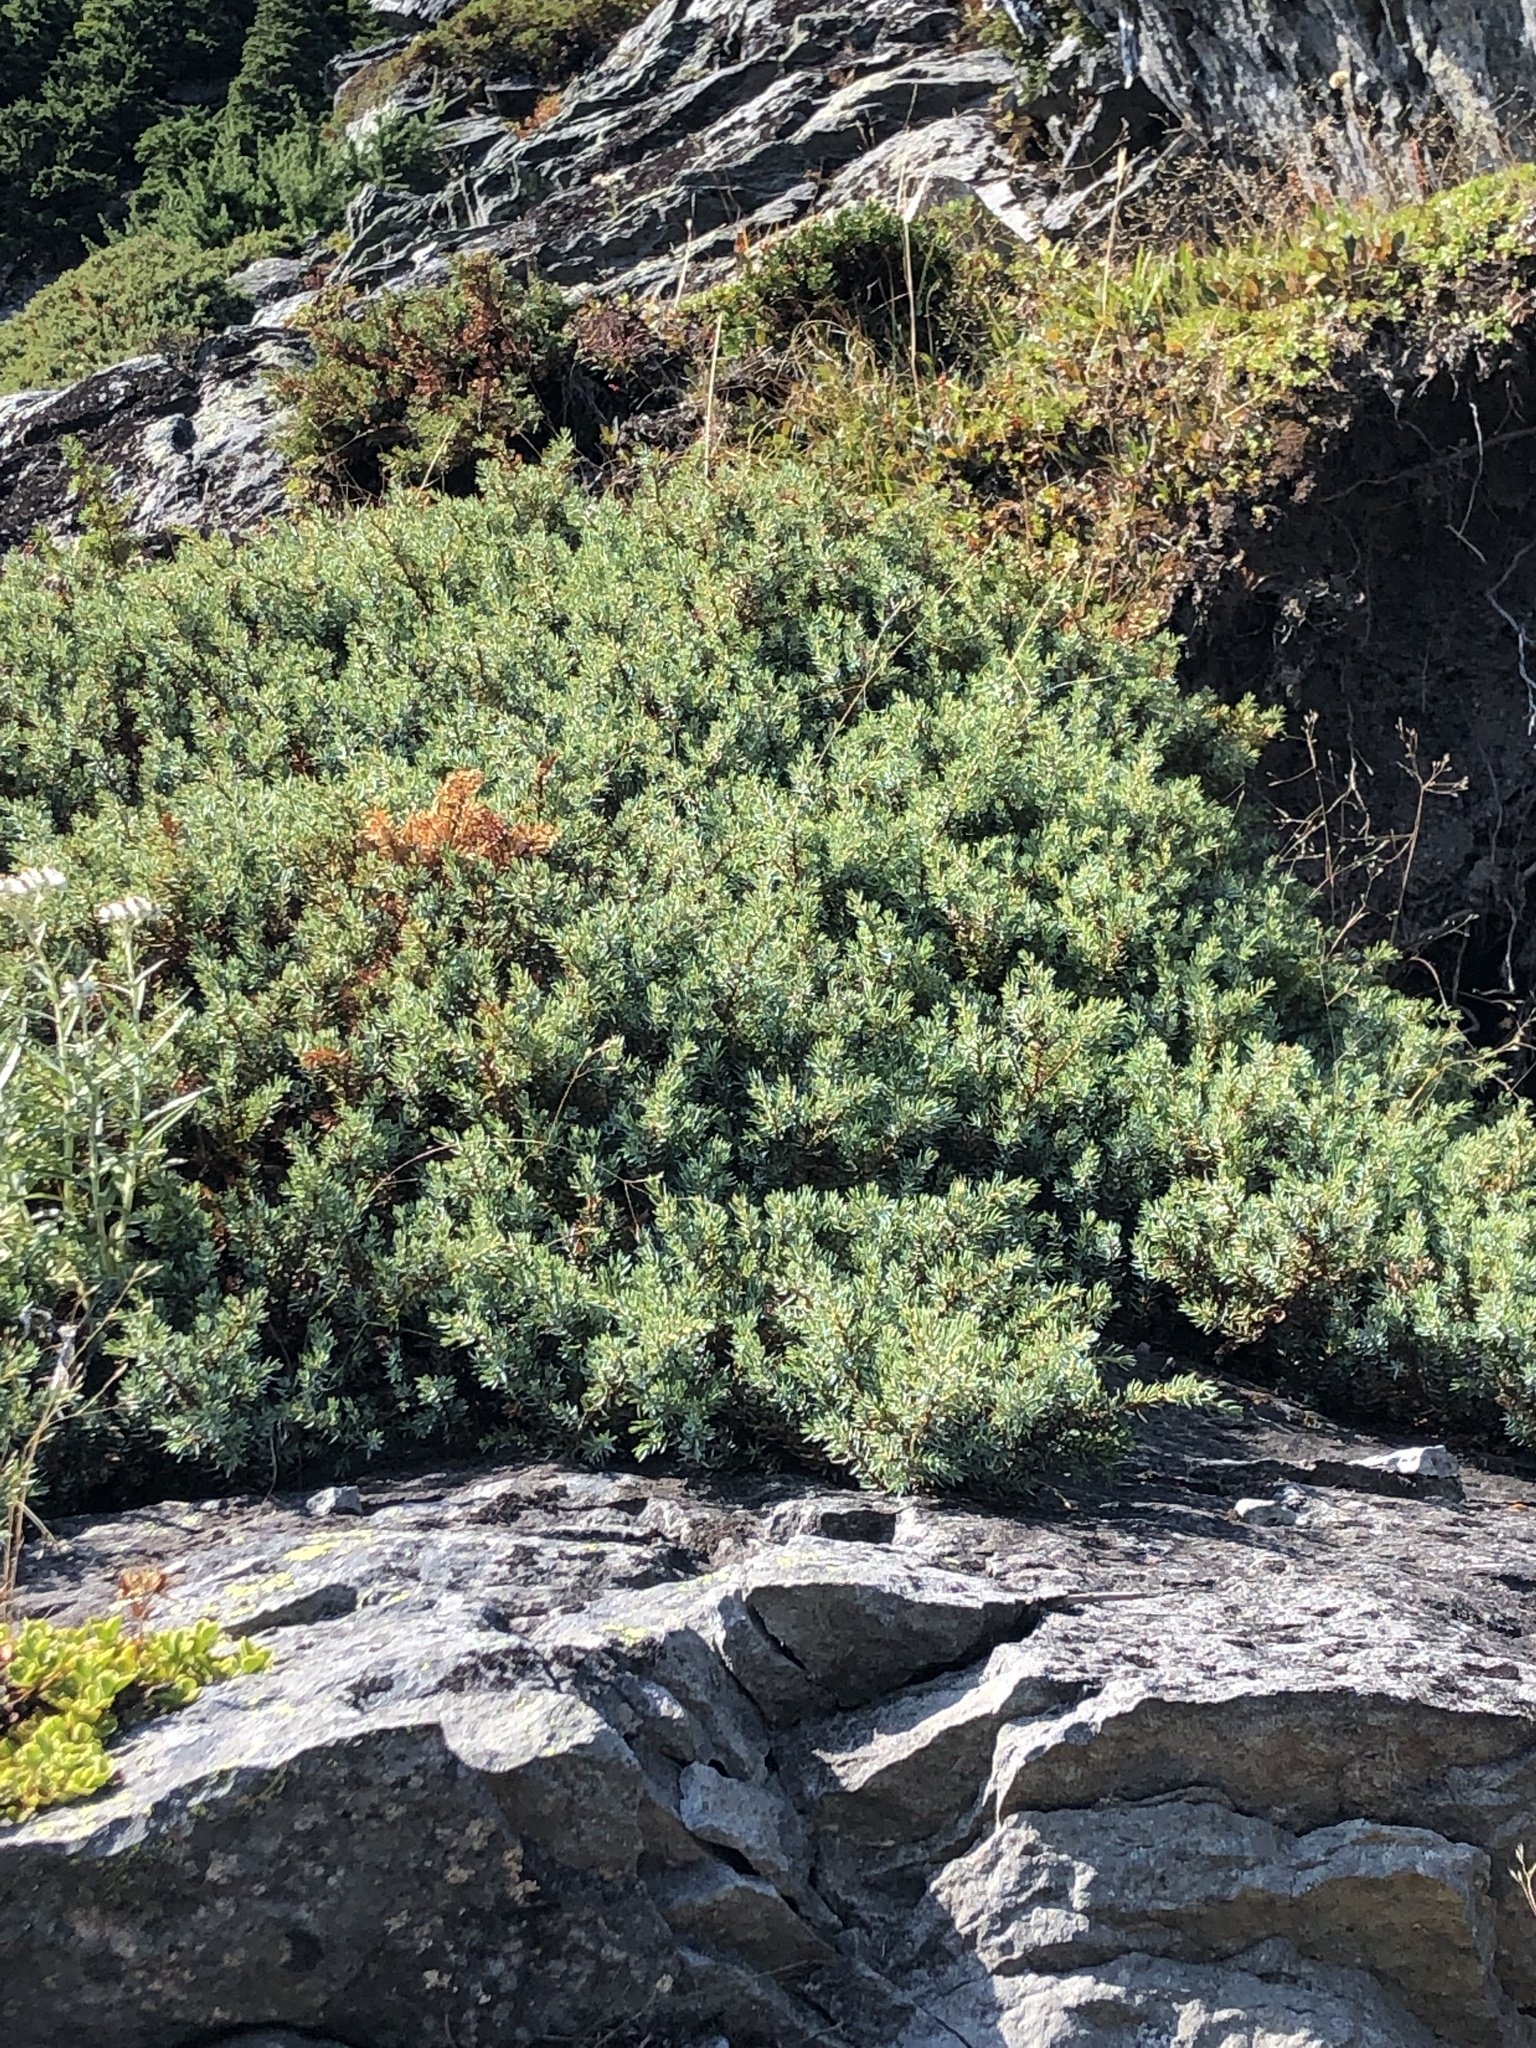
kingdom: Plantae
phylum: Tracheophyta
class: Pinopsida
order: Pinales
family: Cupressaceae
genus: Juniperus
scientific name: Juniperus communis
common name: Common juniper
